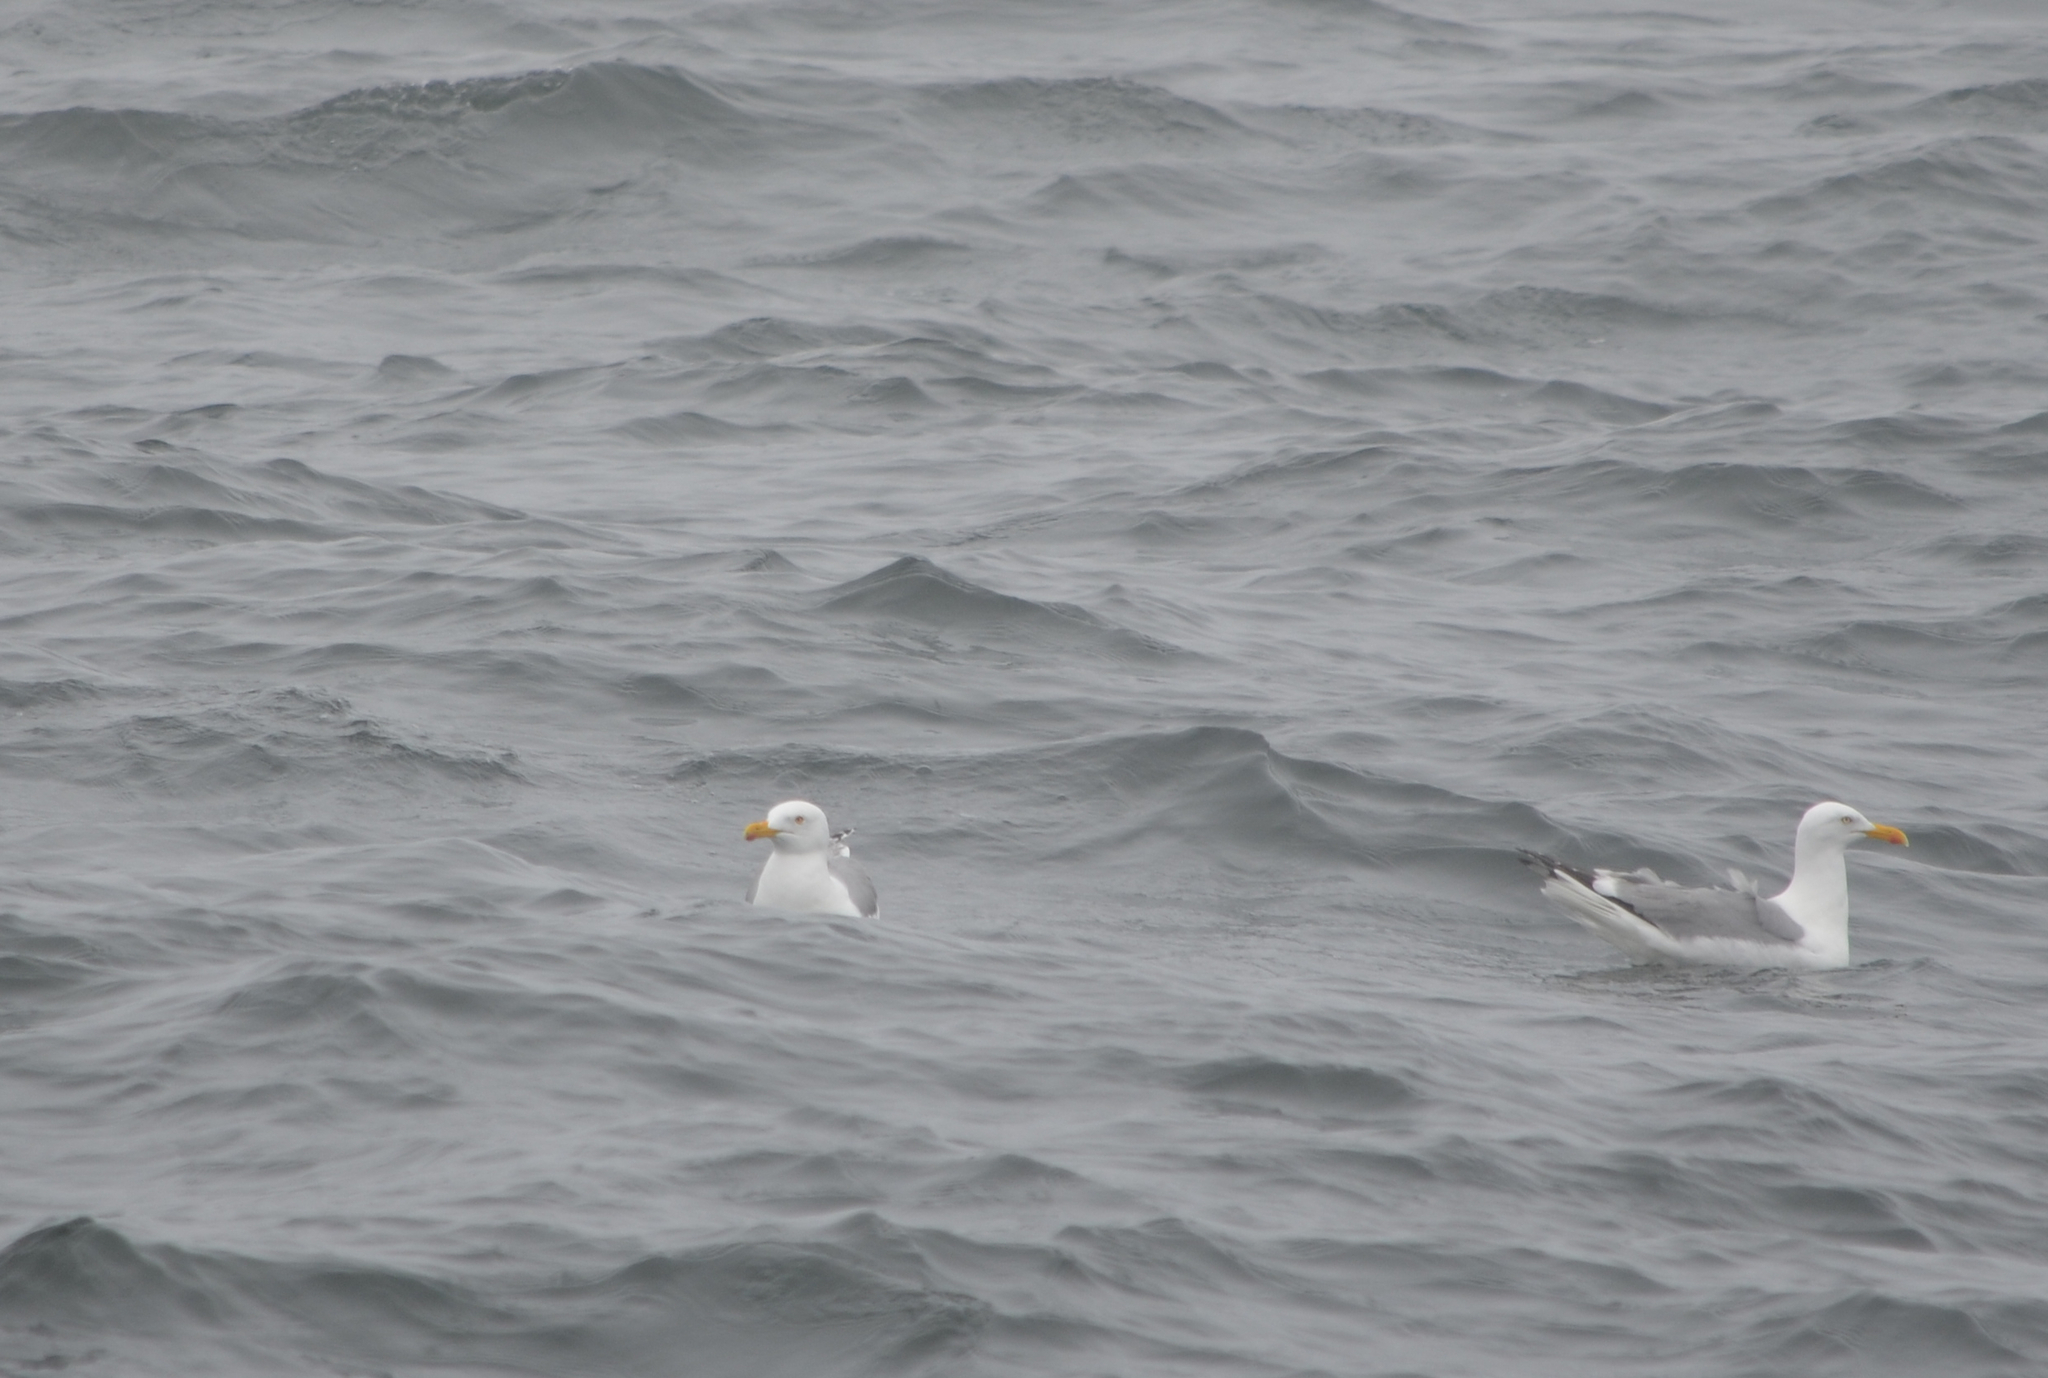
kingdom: Animalia
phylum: Chordata
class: Aves
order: Charadriiformes
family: Laridae
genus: Larus
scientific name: Larus argentatus
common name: Herring gull
